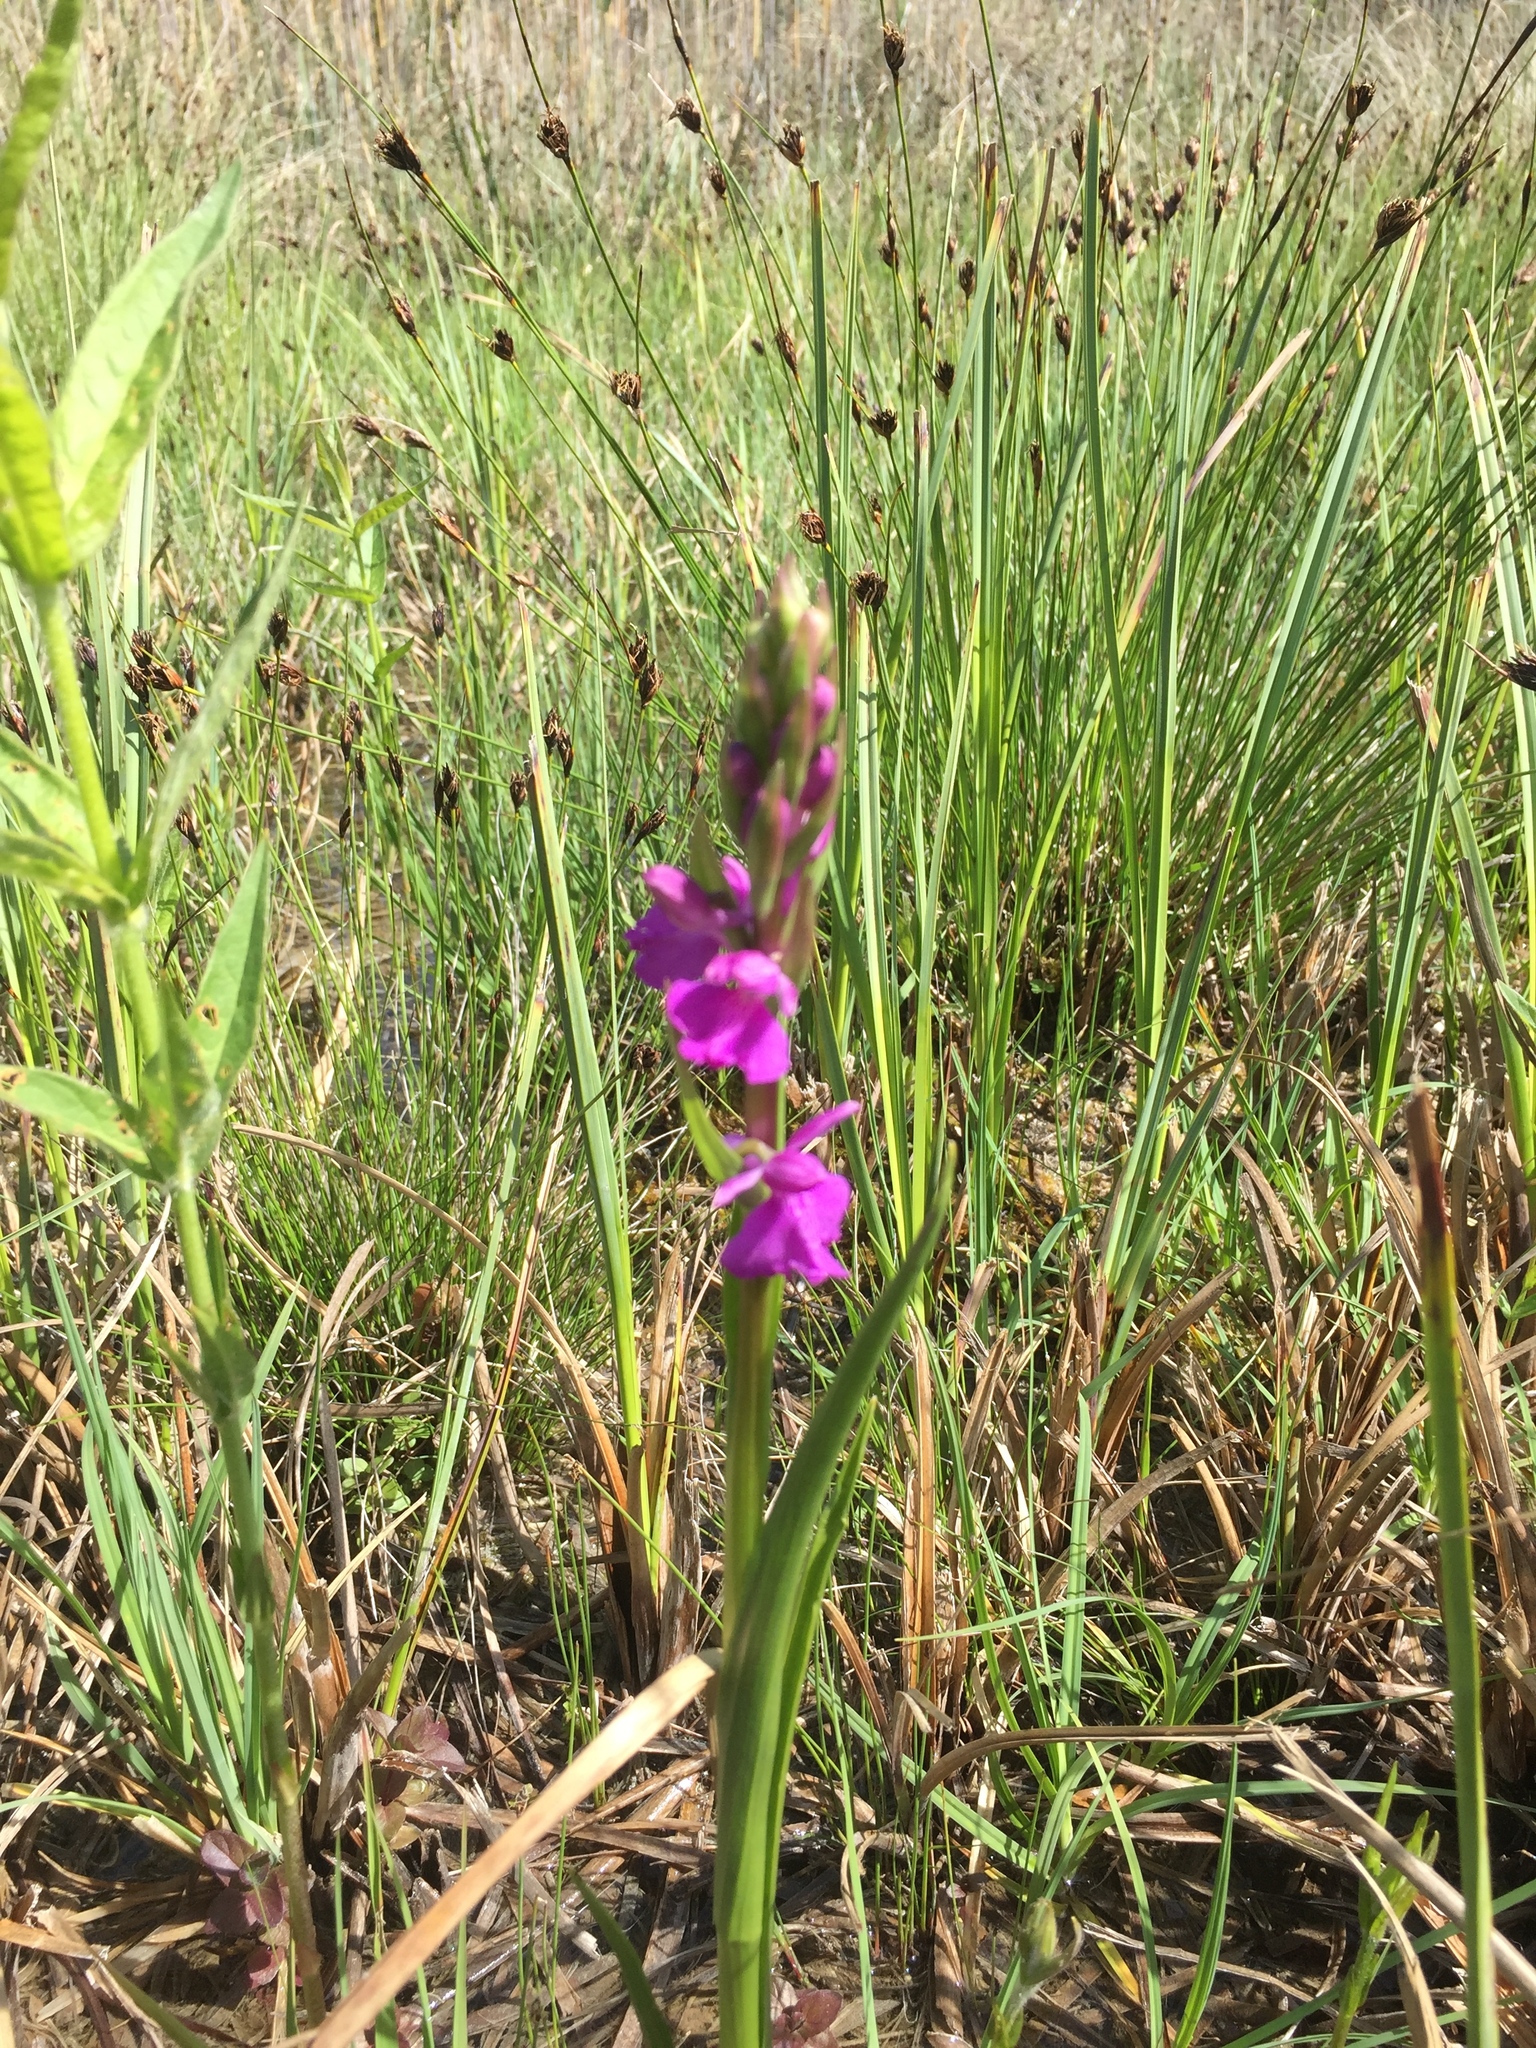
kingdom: Plantae
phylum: Tracheophyta
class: Liliopsida
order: Asparagales
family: Orchidaceae
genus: Anacamptis
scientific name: Anacamptis palustris
